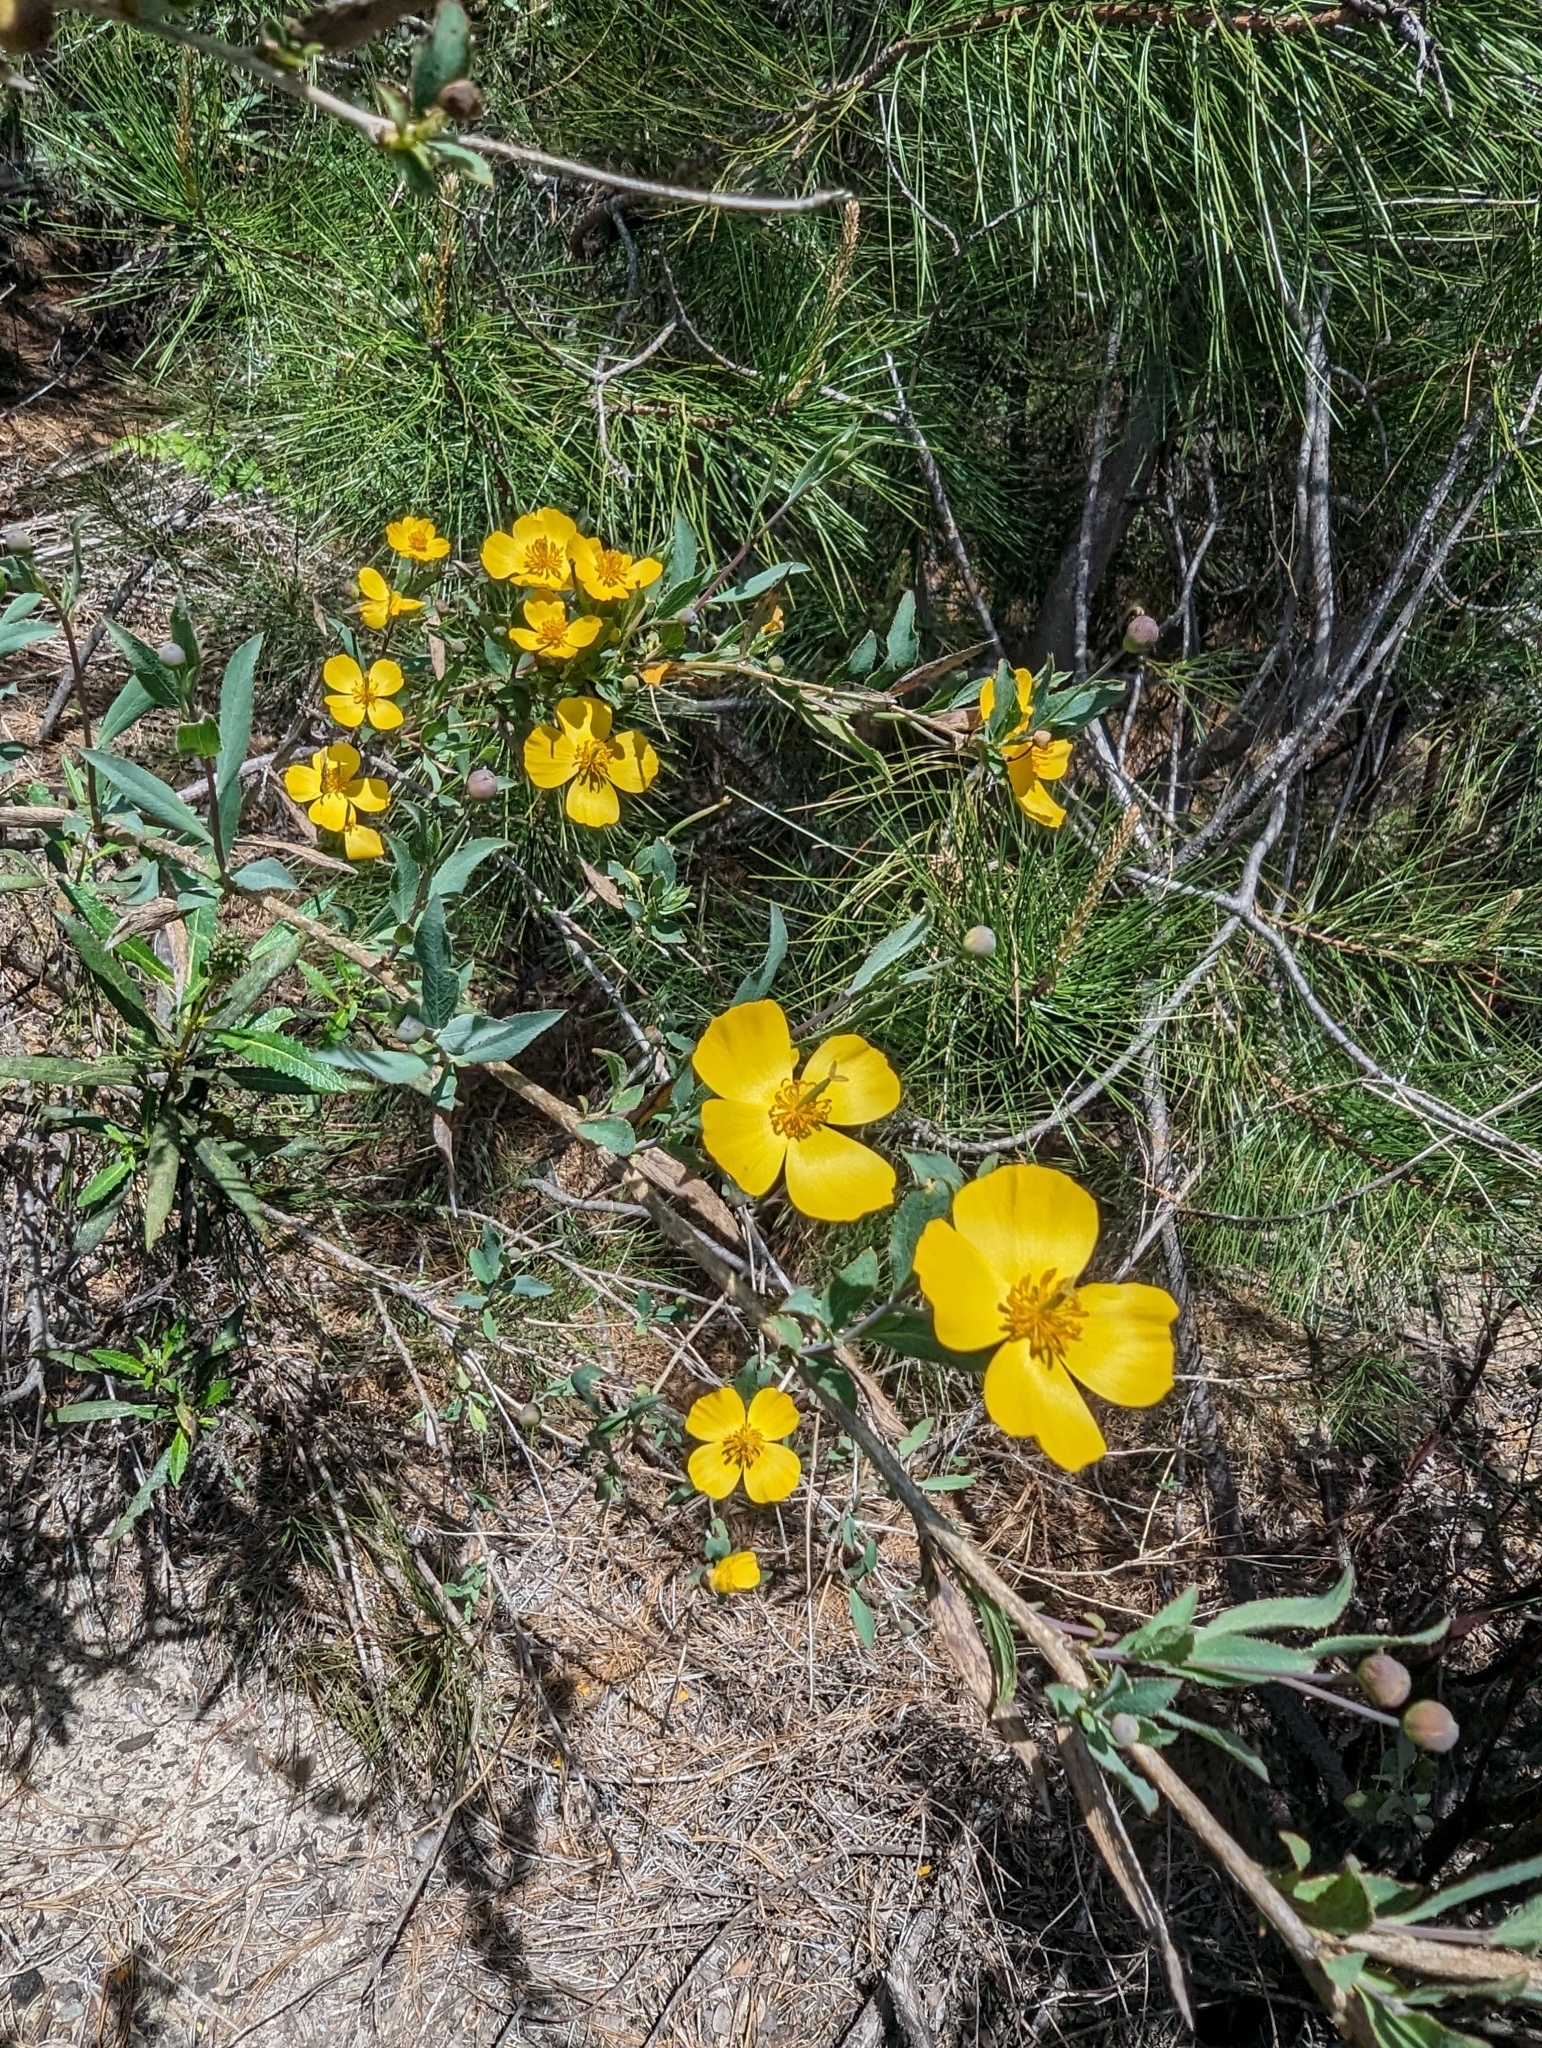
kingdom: Plantae
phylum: Tracheophyta
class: Magnoliopsida
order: Ranunculales
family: Papaveraceae
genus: Dendromecon
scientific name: Dendromecon rigida
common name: Tree poppy
